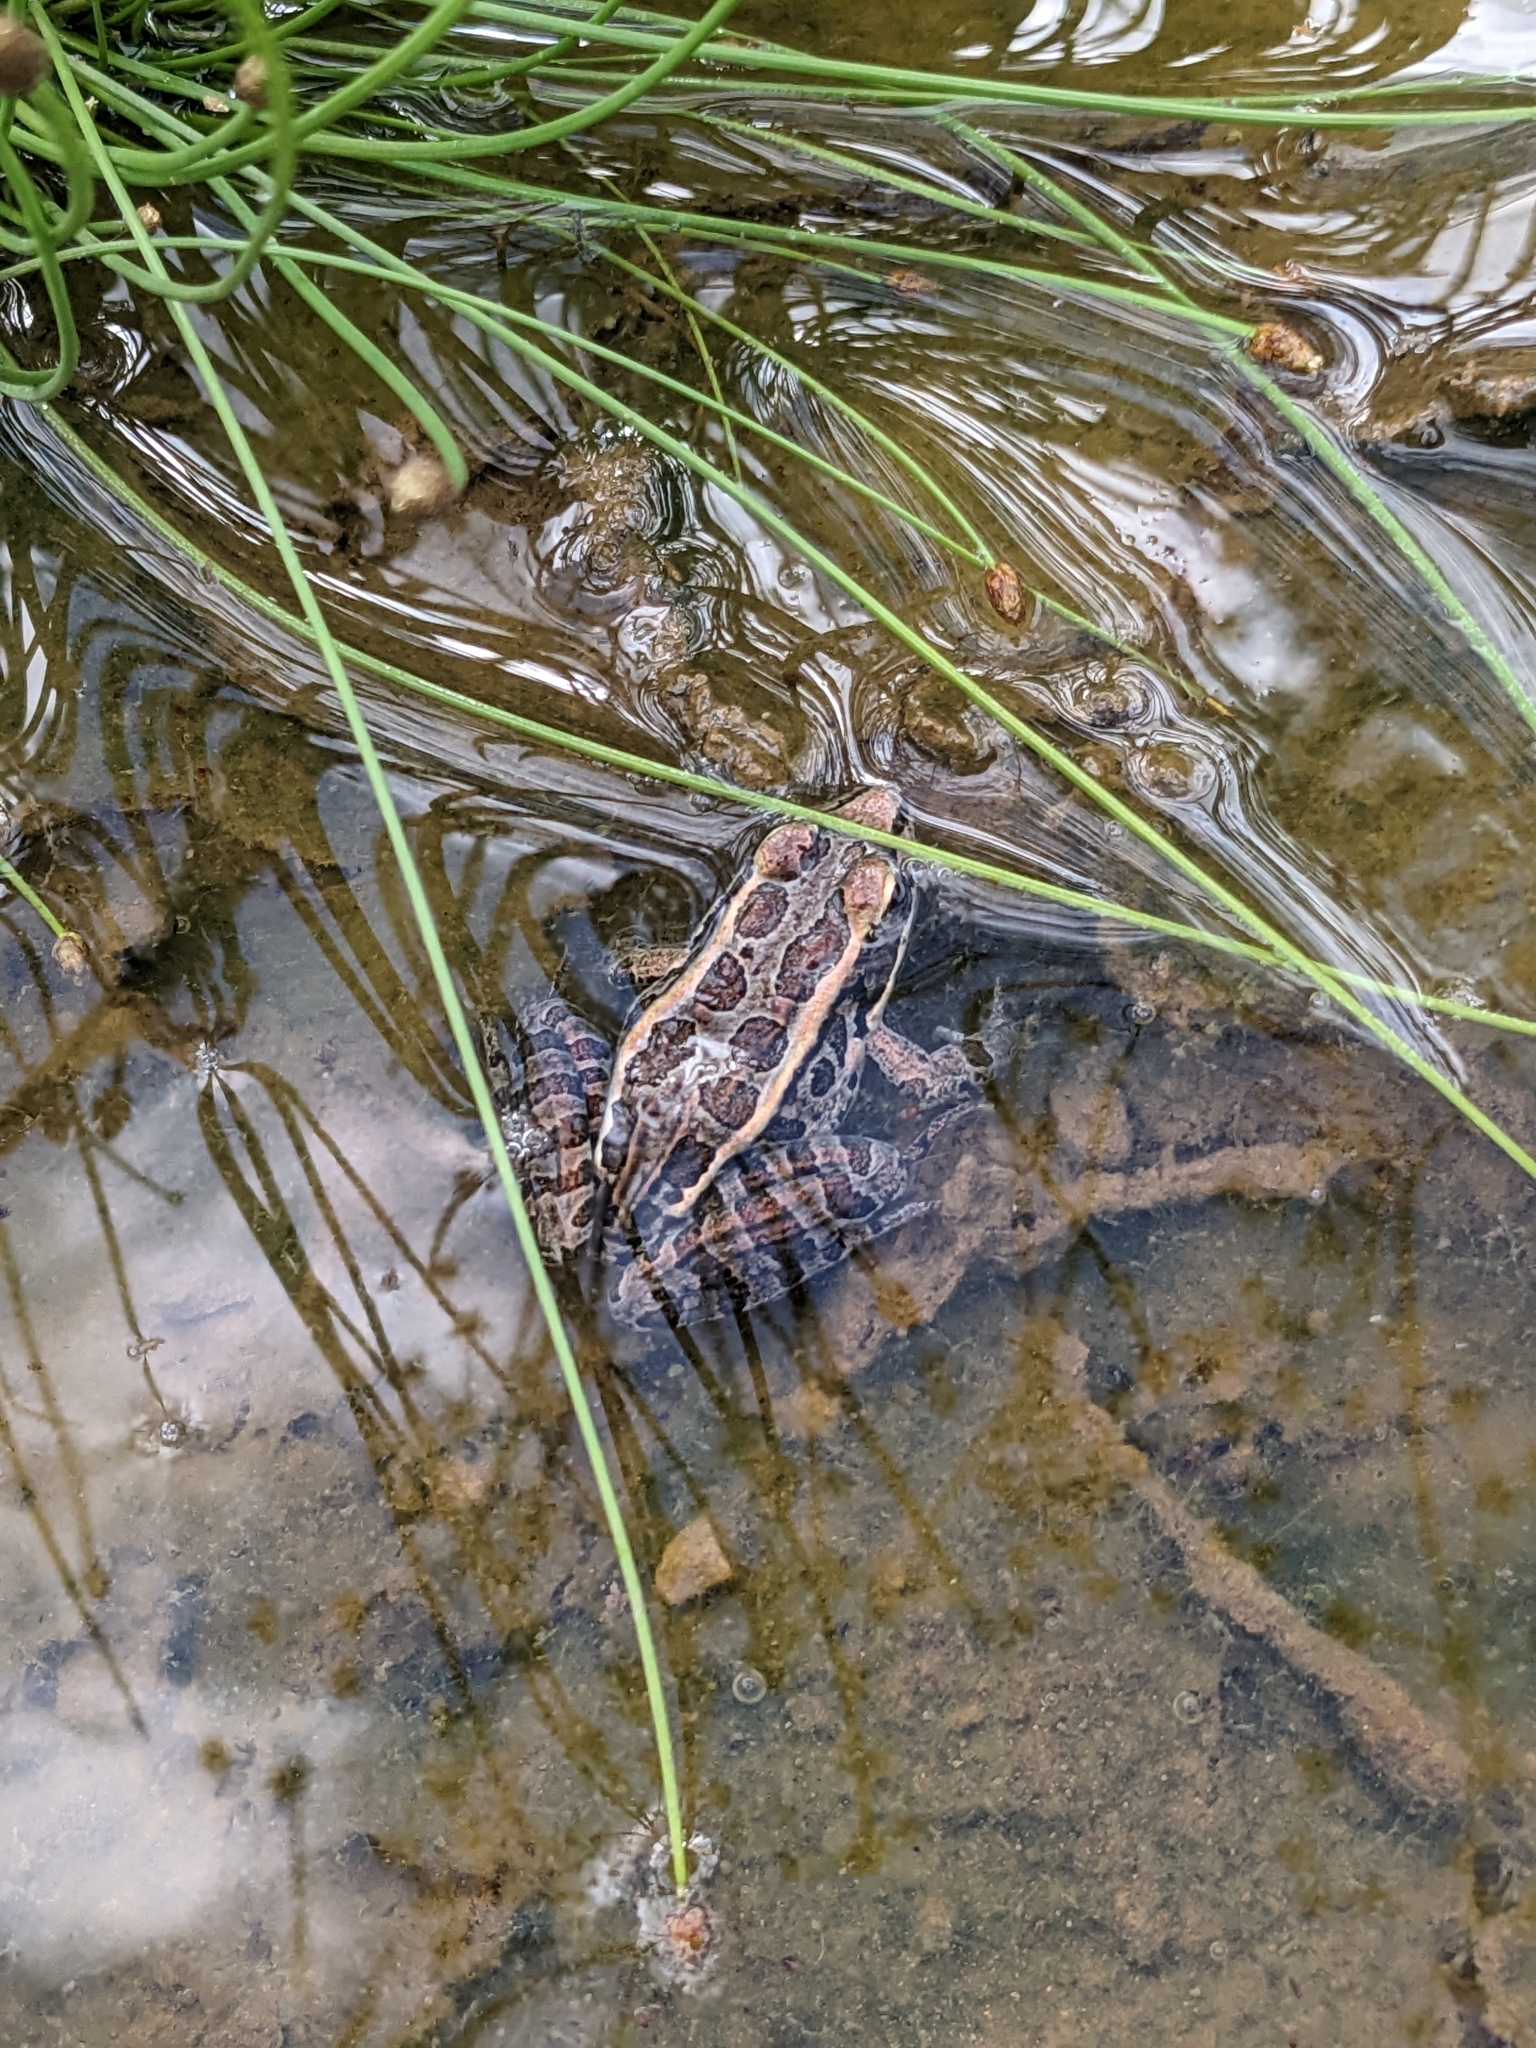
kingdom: Animalia
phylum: Chordata
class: Amphibia
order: Anura
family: Ranidae
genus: Lithobates
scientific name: Lithobates palustris
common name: Pickerel frog
